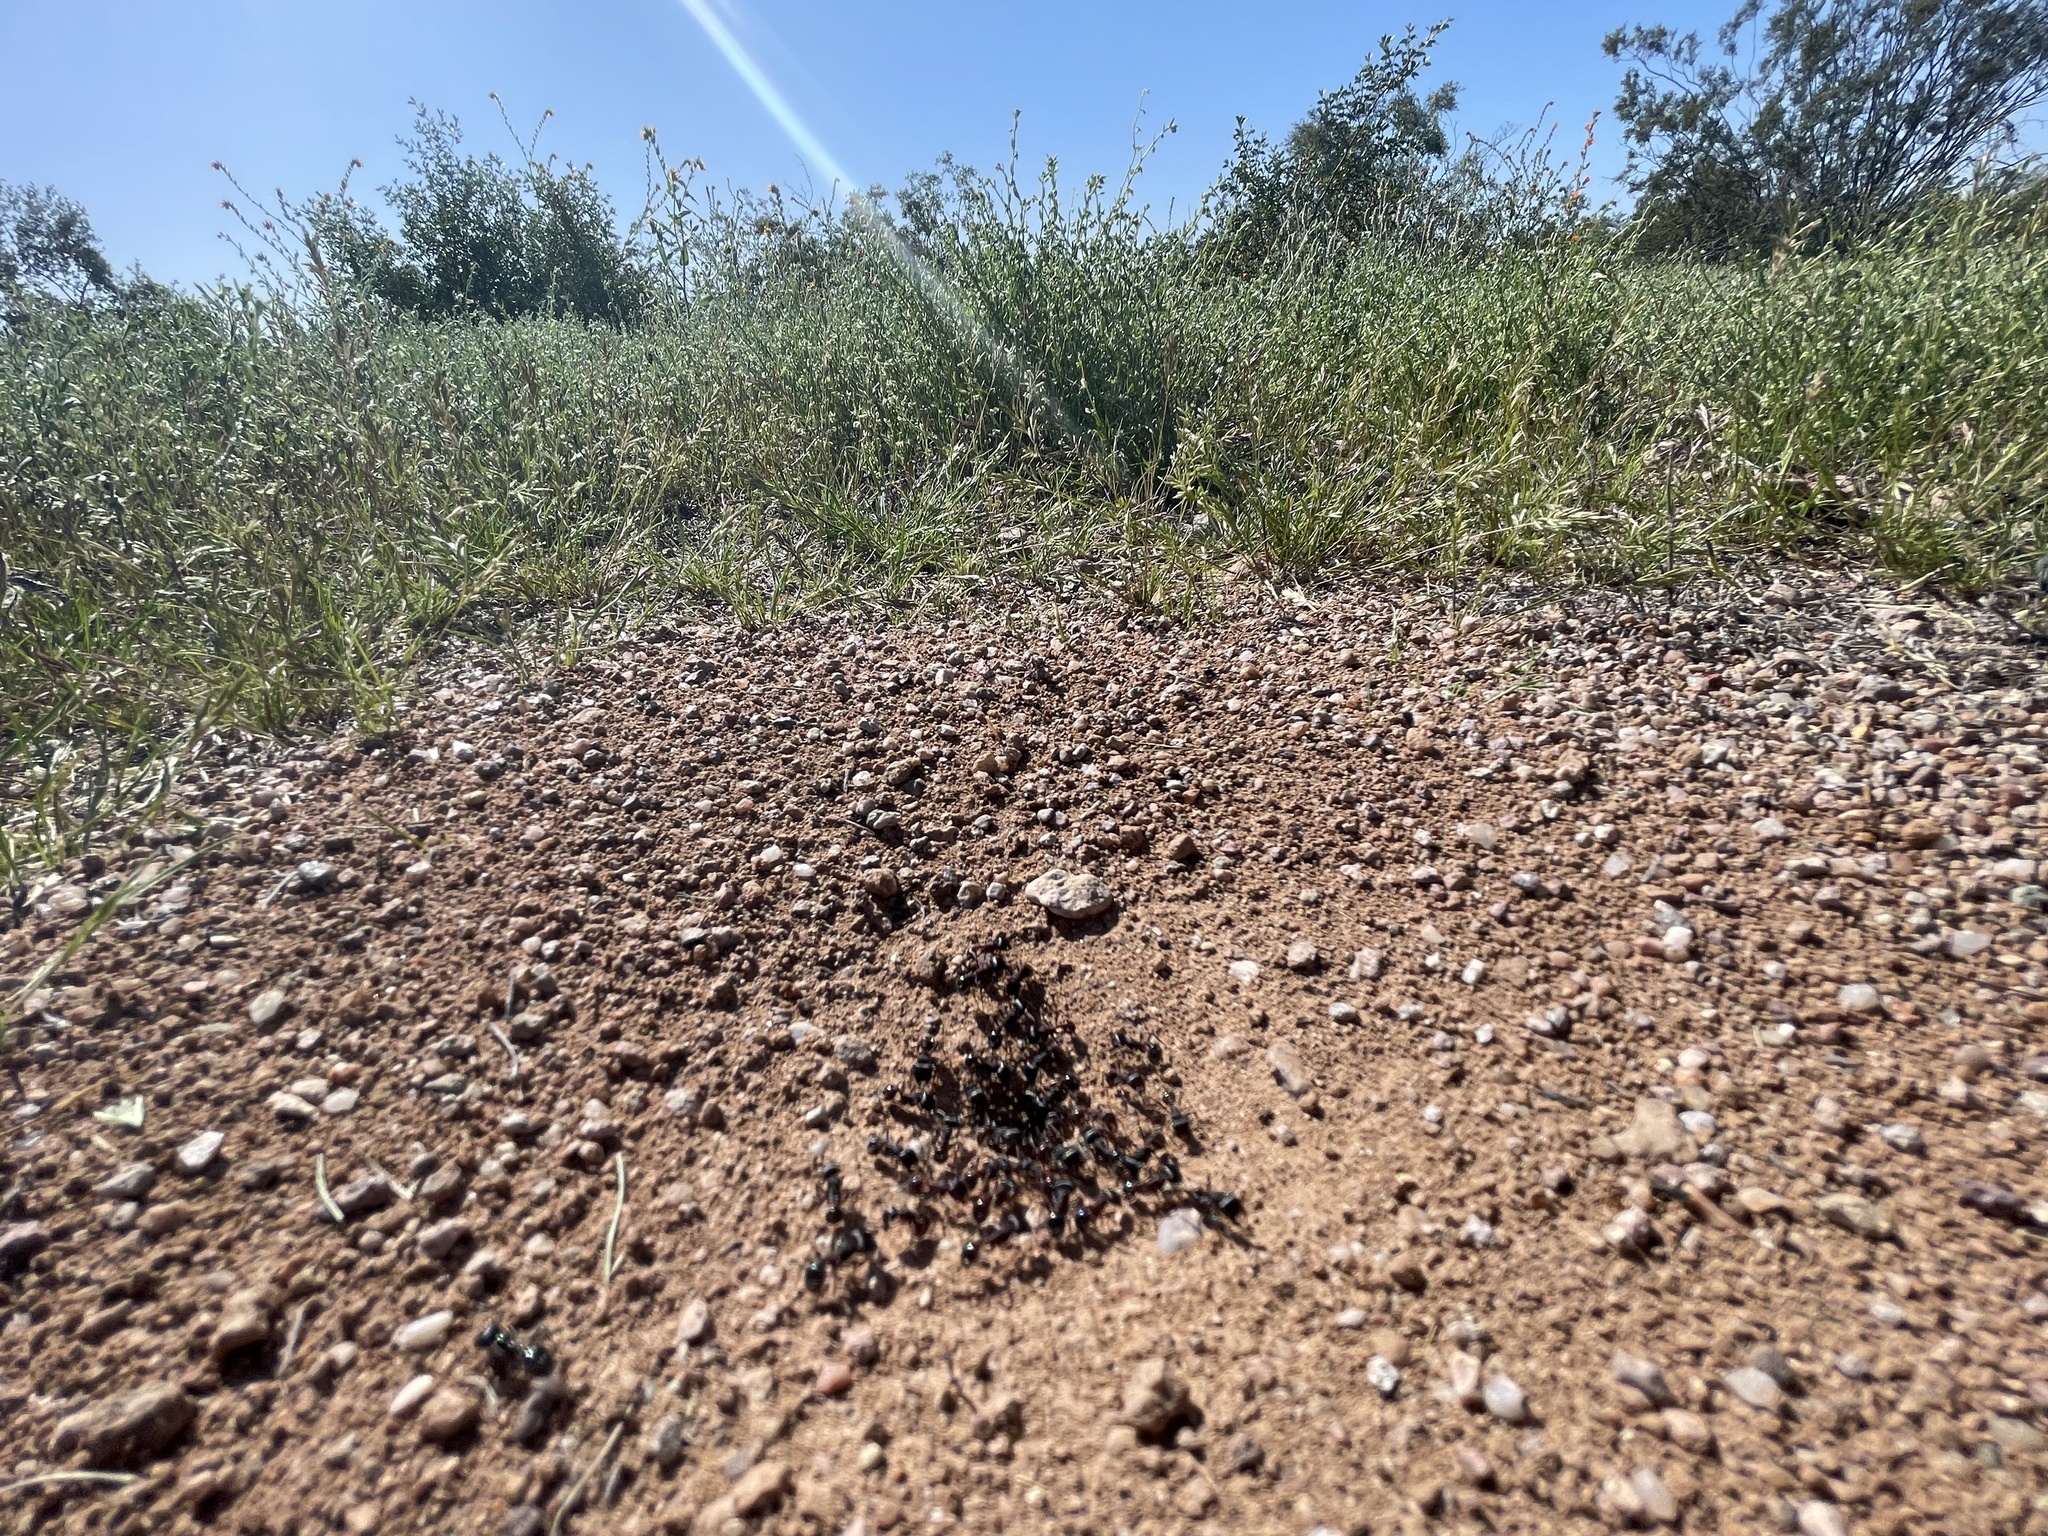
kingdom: Animalia
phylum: Arthropoda
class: Insecta
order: Hymenoptera
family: Formicidae
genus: Pogonomyrmex
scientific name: Pogonomyrmex rugosus
